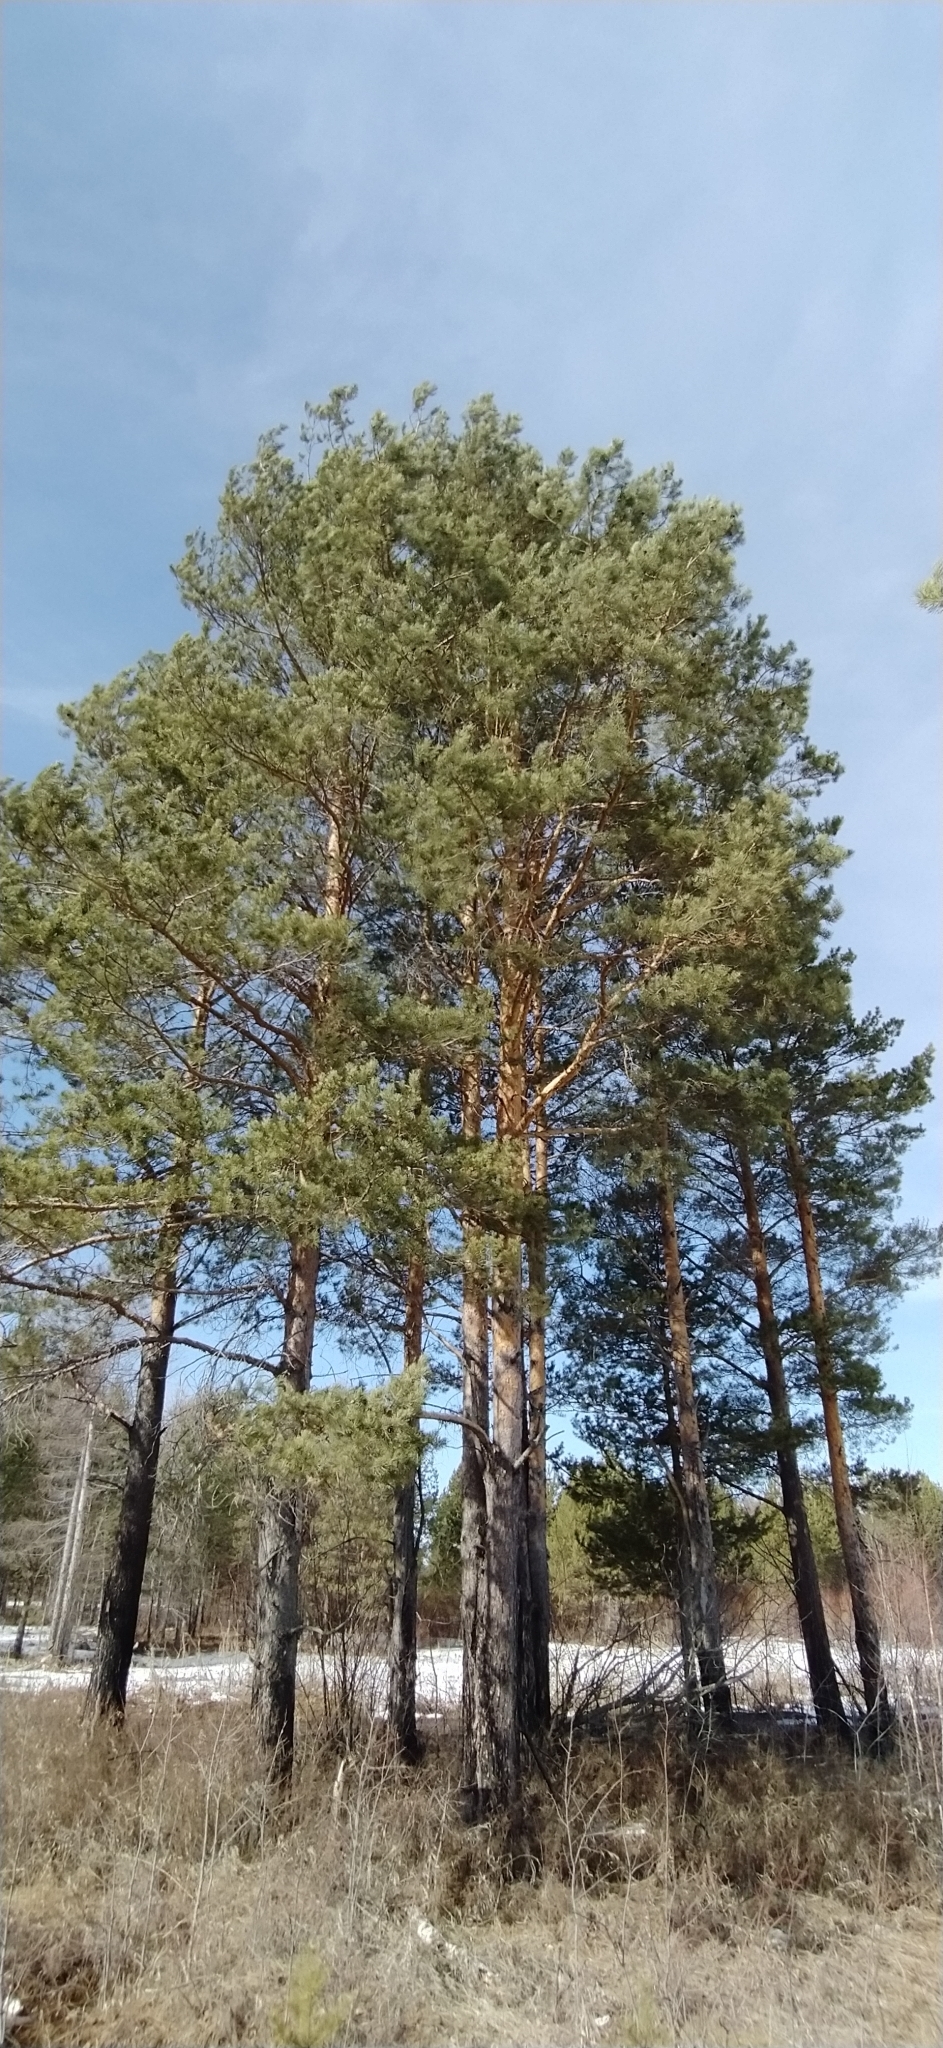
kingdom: Plantae
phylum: Tracheophyta
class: Pinopsida
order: Pinales
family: Pinaceae
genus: Pinus
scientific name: Pinus sylvestris
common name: Scots pine
